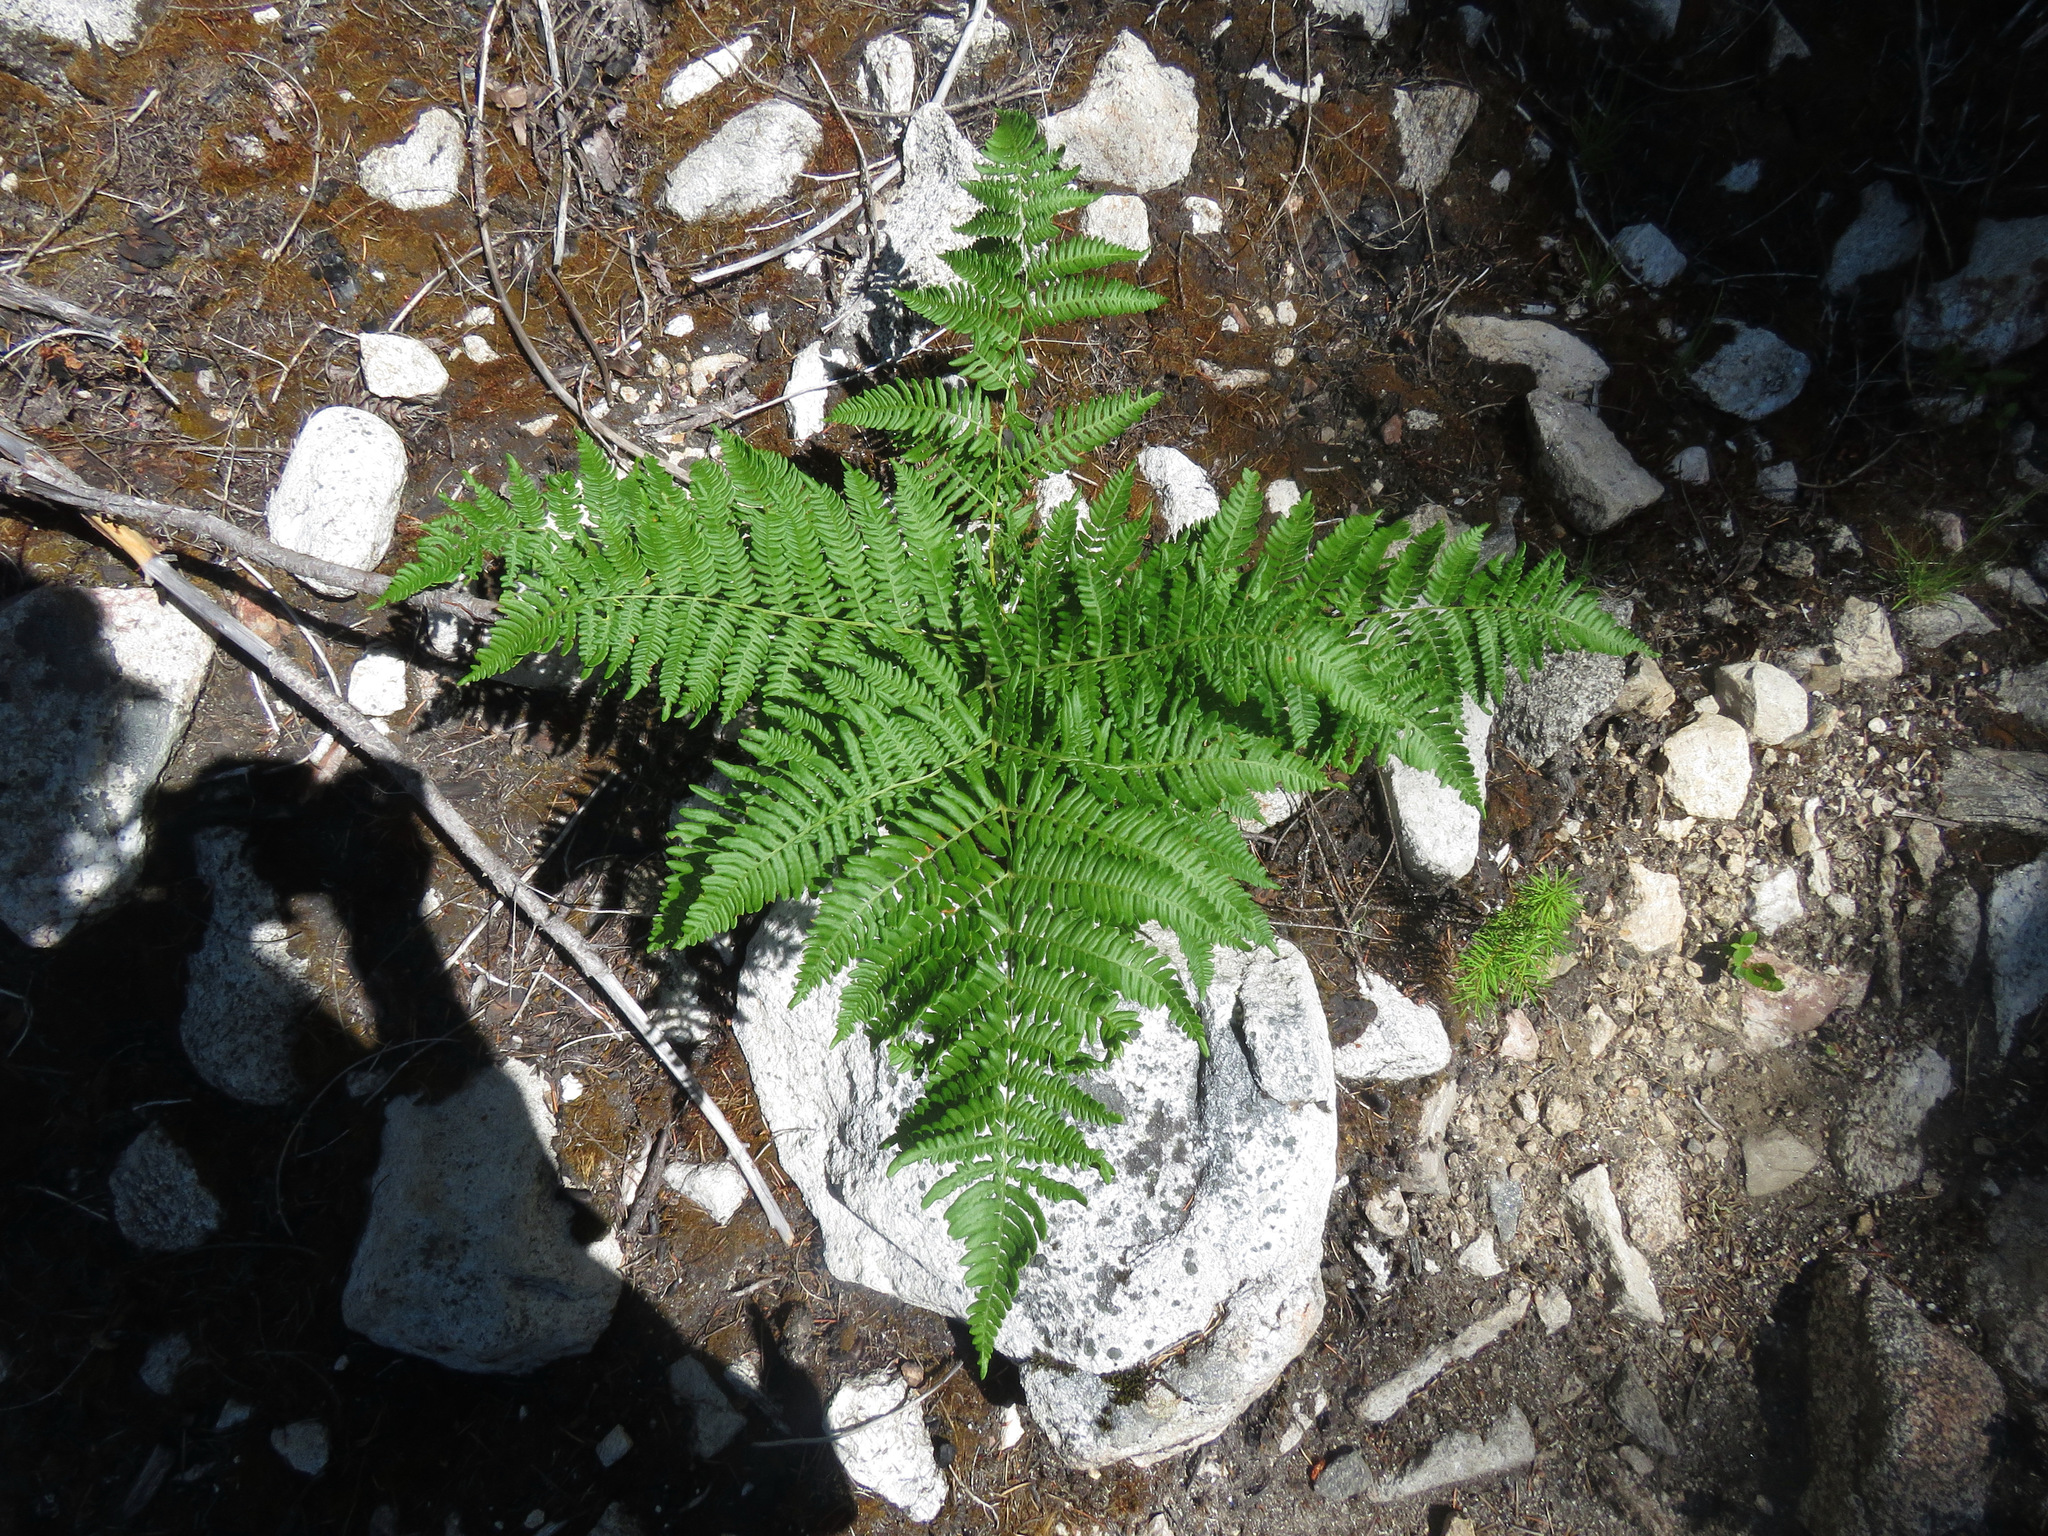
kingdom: Plantae
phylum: Tracheophyta
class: Polypodiopsida
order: Polypodiales
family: Dennstaedtiaceae
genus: Pteridium
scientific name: Pteridium aquilinum
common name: Bracken
